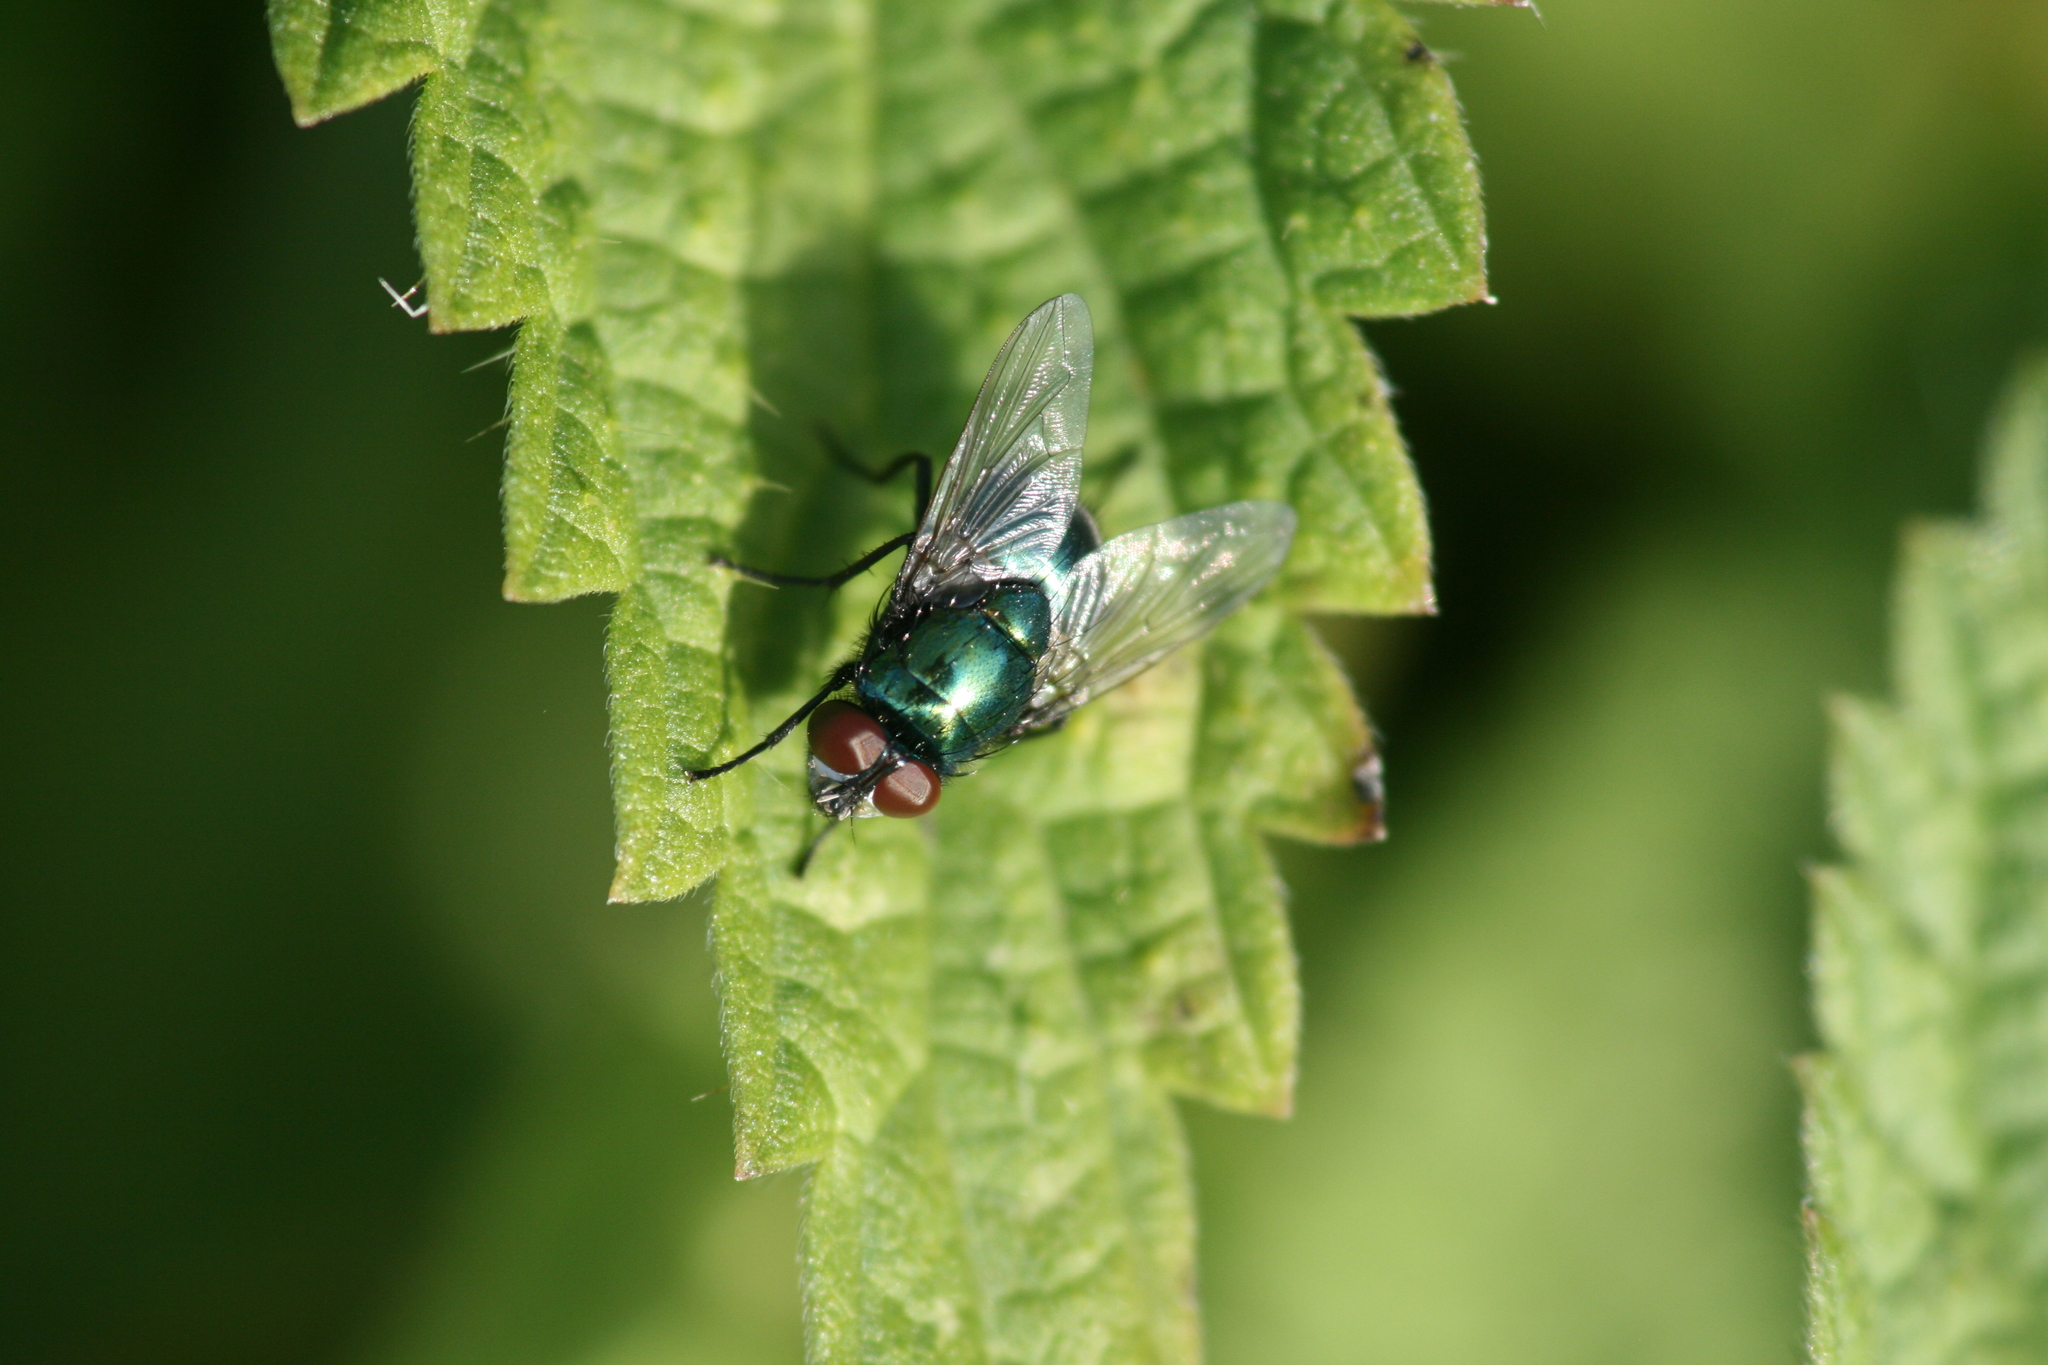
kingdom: Animalia
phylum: Arthropoda
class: Insecta
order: Diptera
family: Muscidae
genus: Neomyia
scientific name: Neomyia cornicina
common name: House fly
